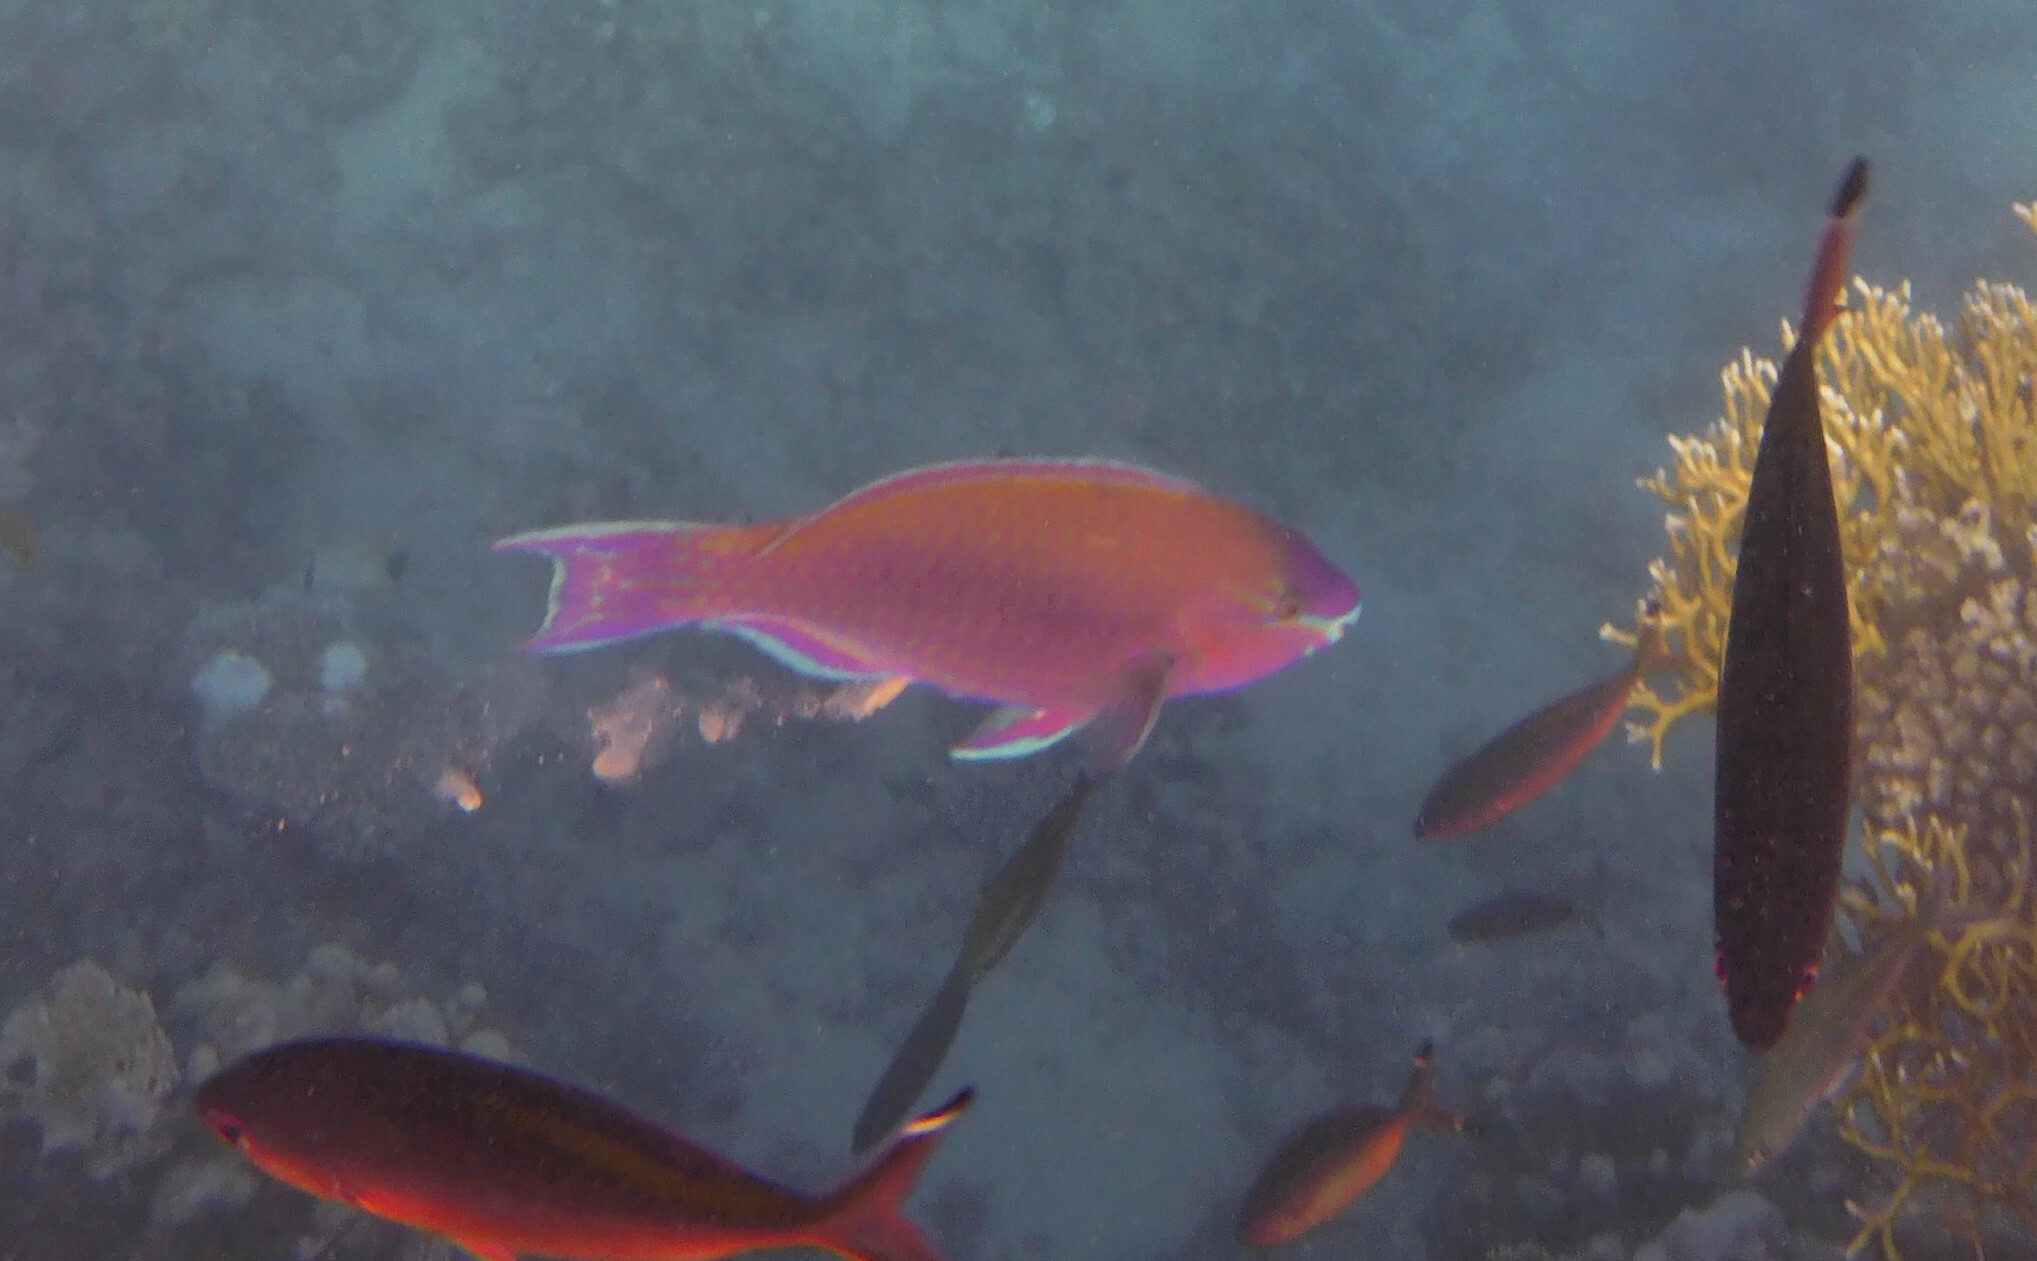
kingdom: Animalia
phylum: Chordata
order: Perciformes
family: Scaridae
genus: Scarus
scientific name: Scarus psittacus
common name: Palenose parrotfish
